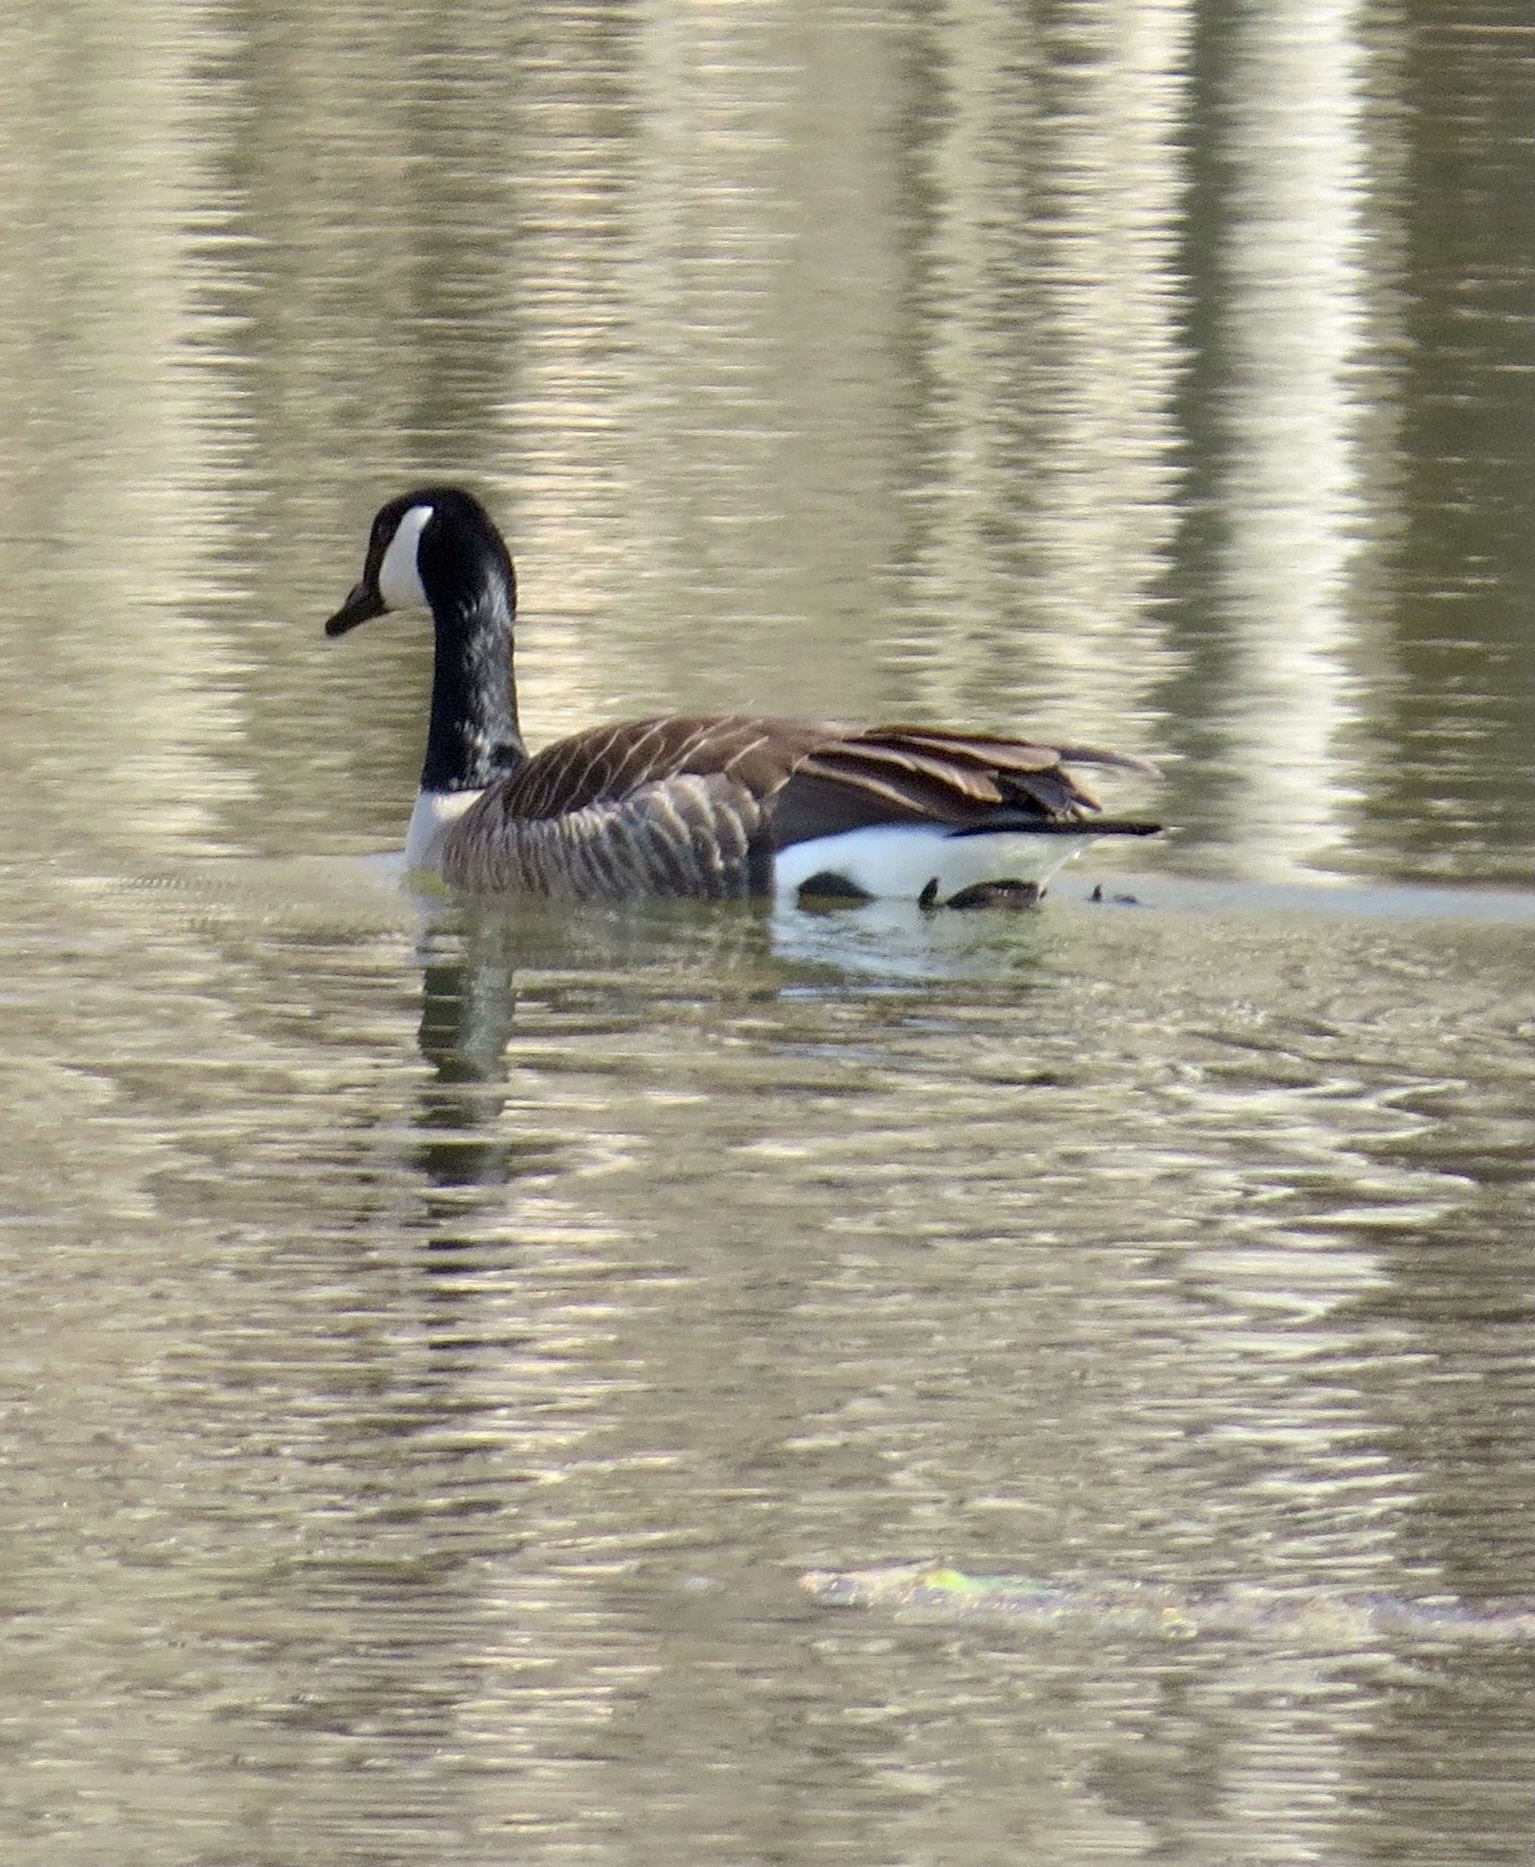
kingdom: Animalia
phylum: Chordata
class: Aves
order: Anseriformes
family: Anatidae
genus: Branta
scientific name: Branta canadensis
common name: Canada goose
